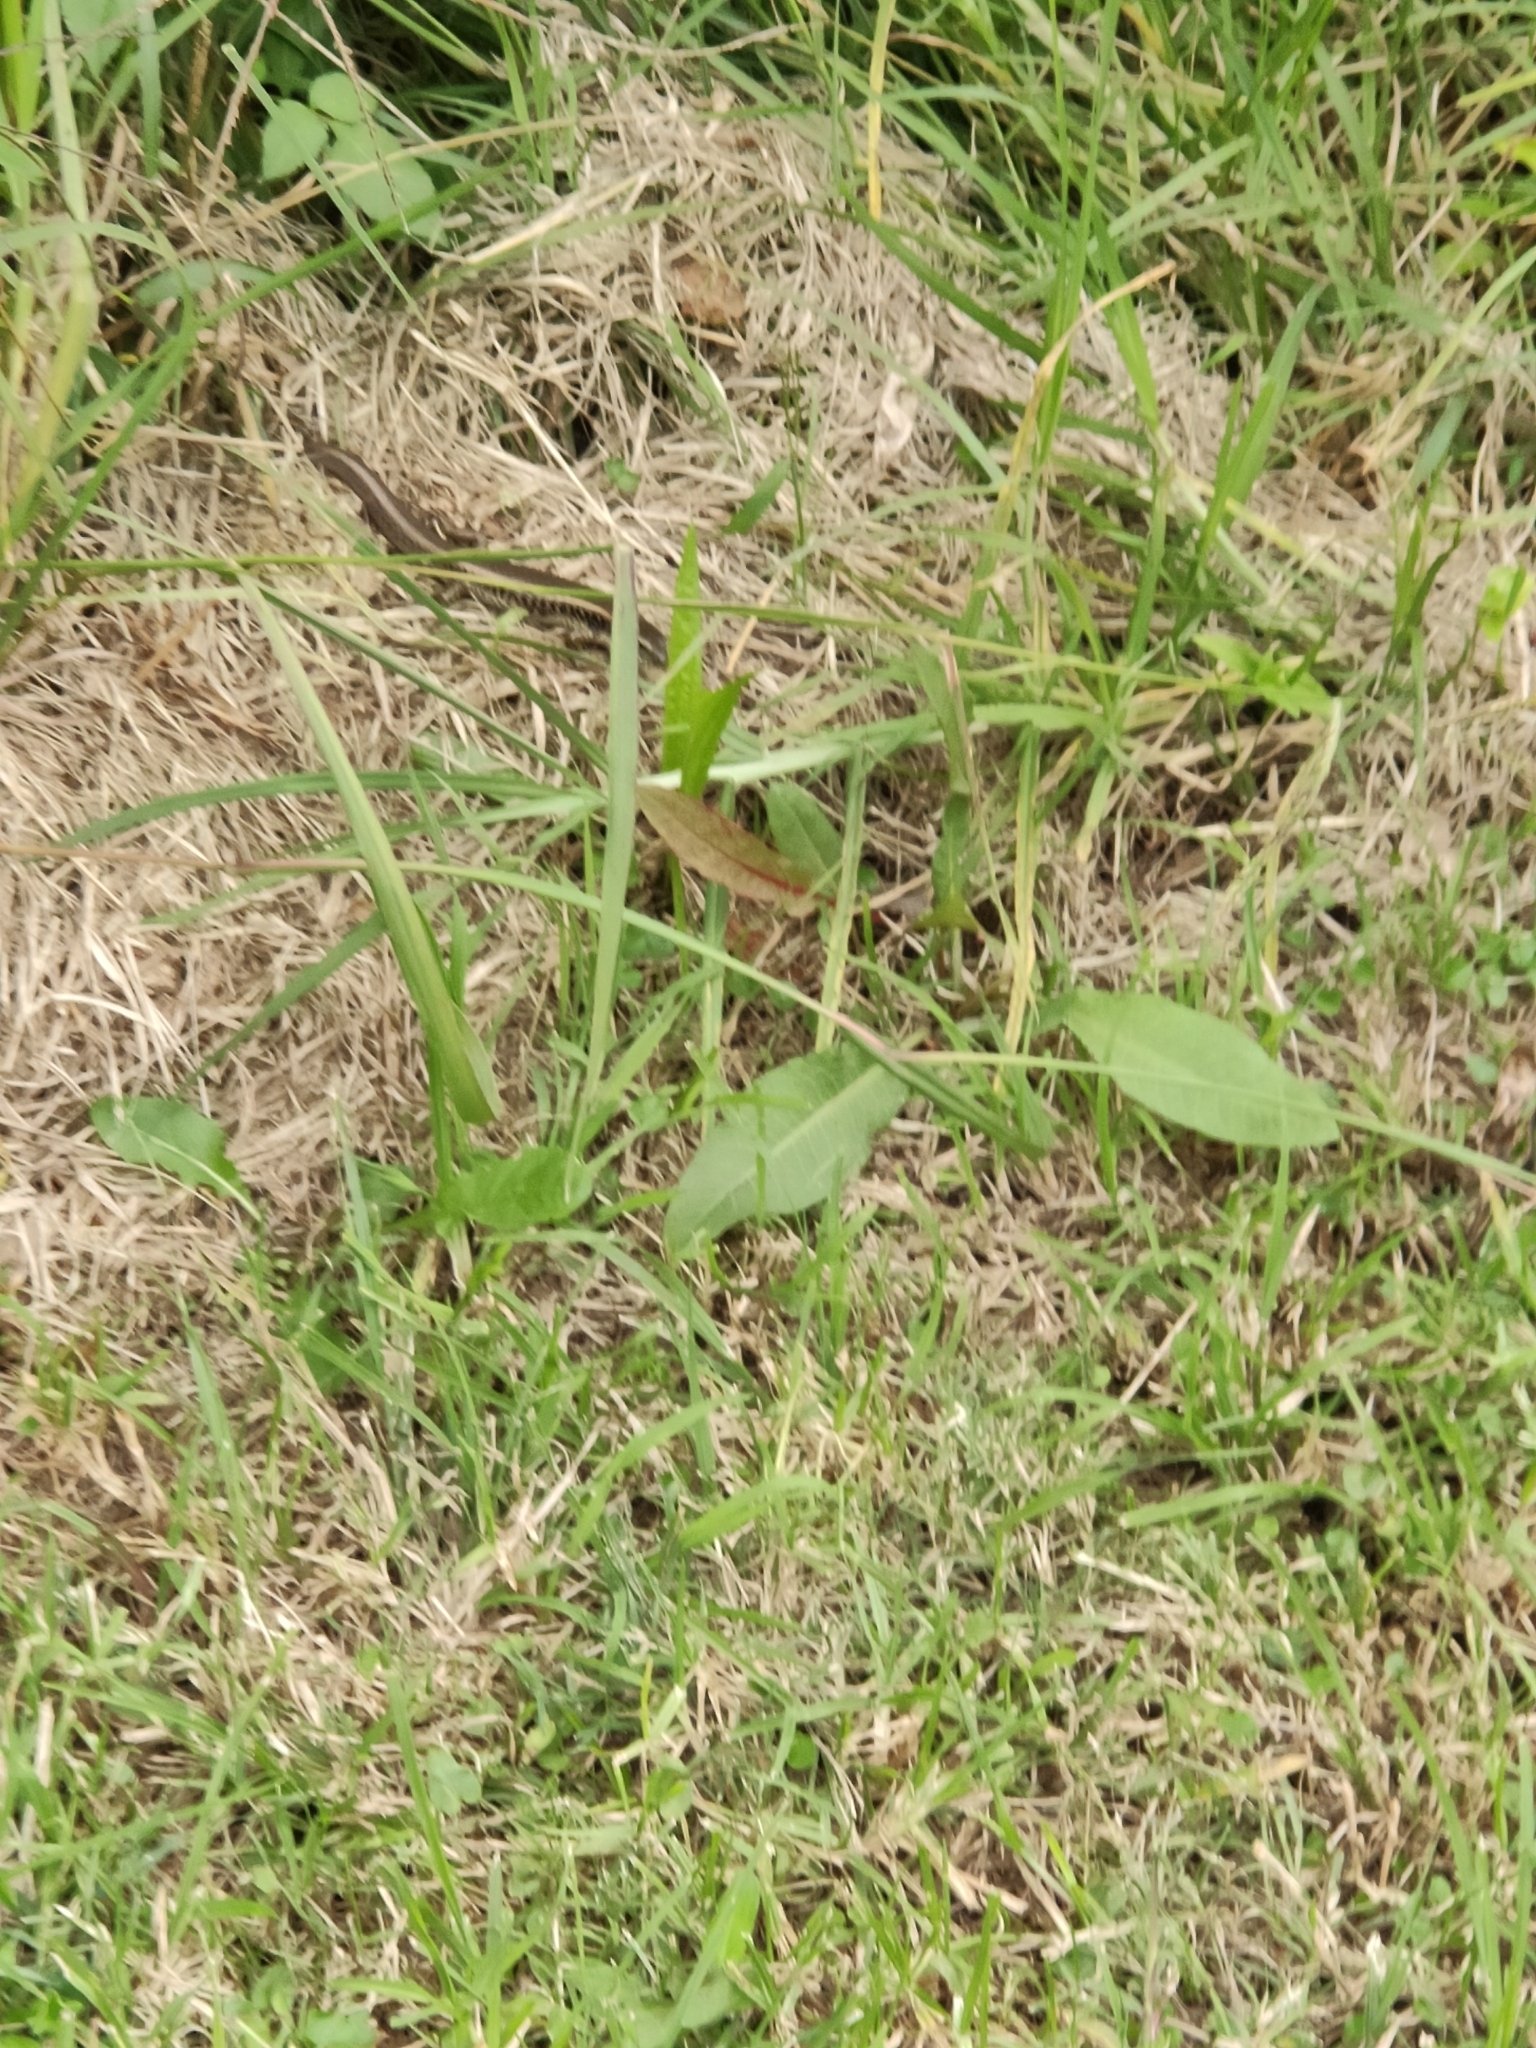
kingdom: Animalia
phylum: Chordata
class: Squamata
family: Scincidae
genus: Eulamprus
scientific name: Eulamprus quoyii
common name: Eastern water skink
